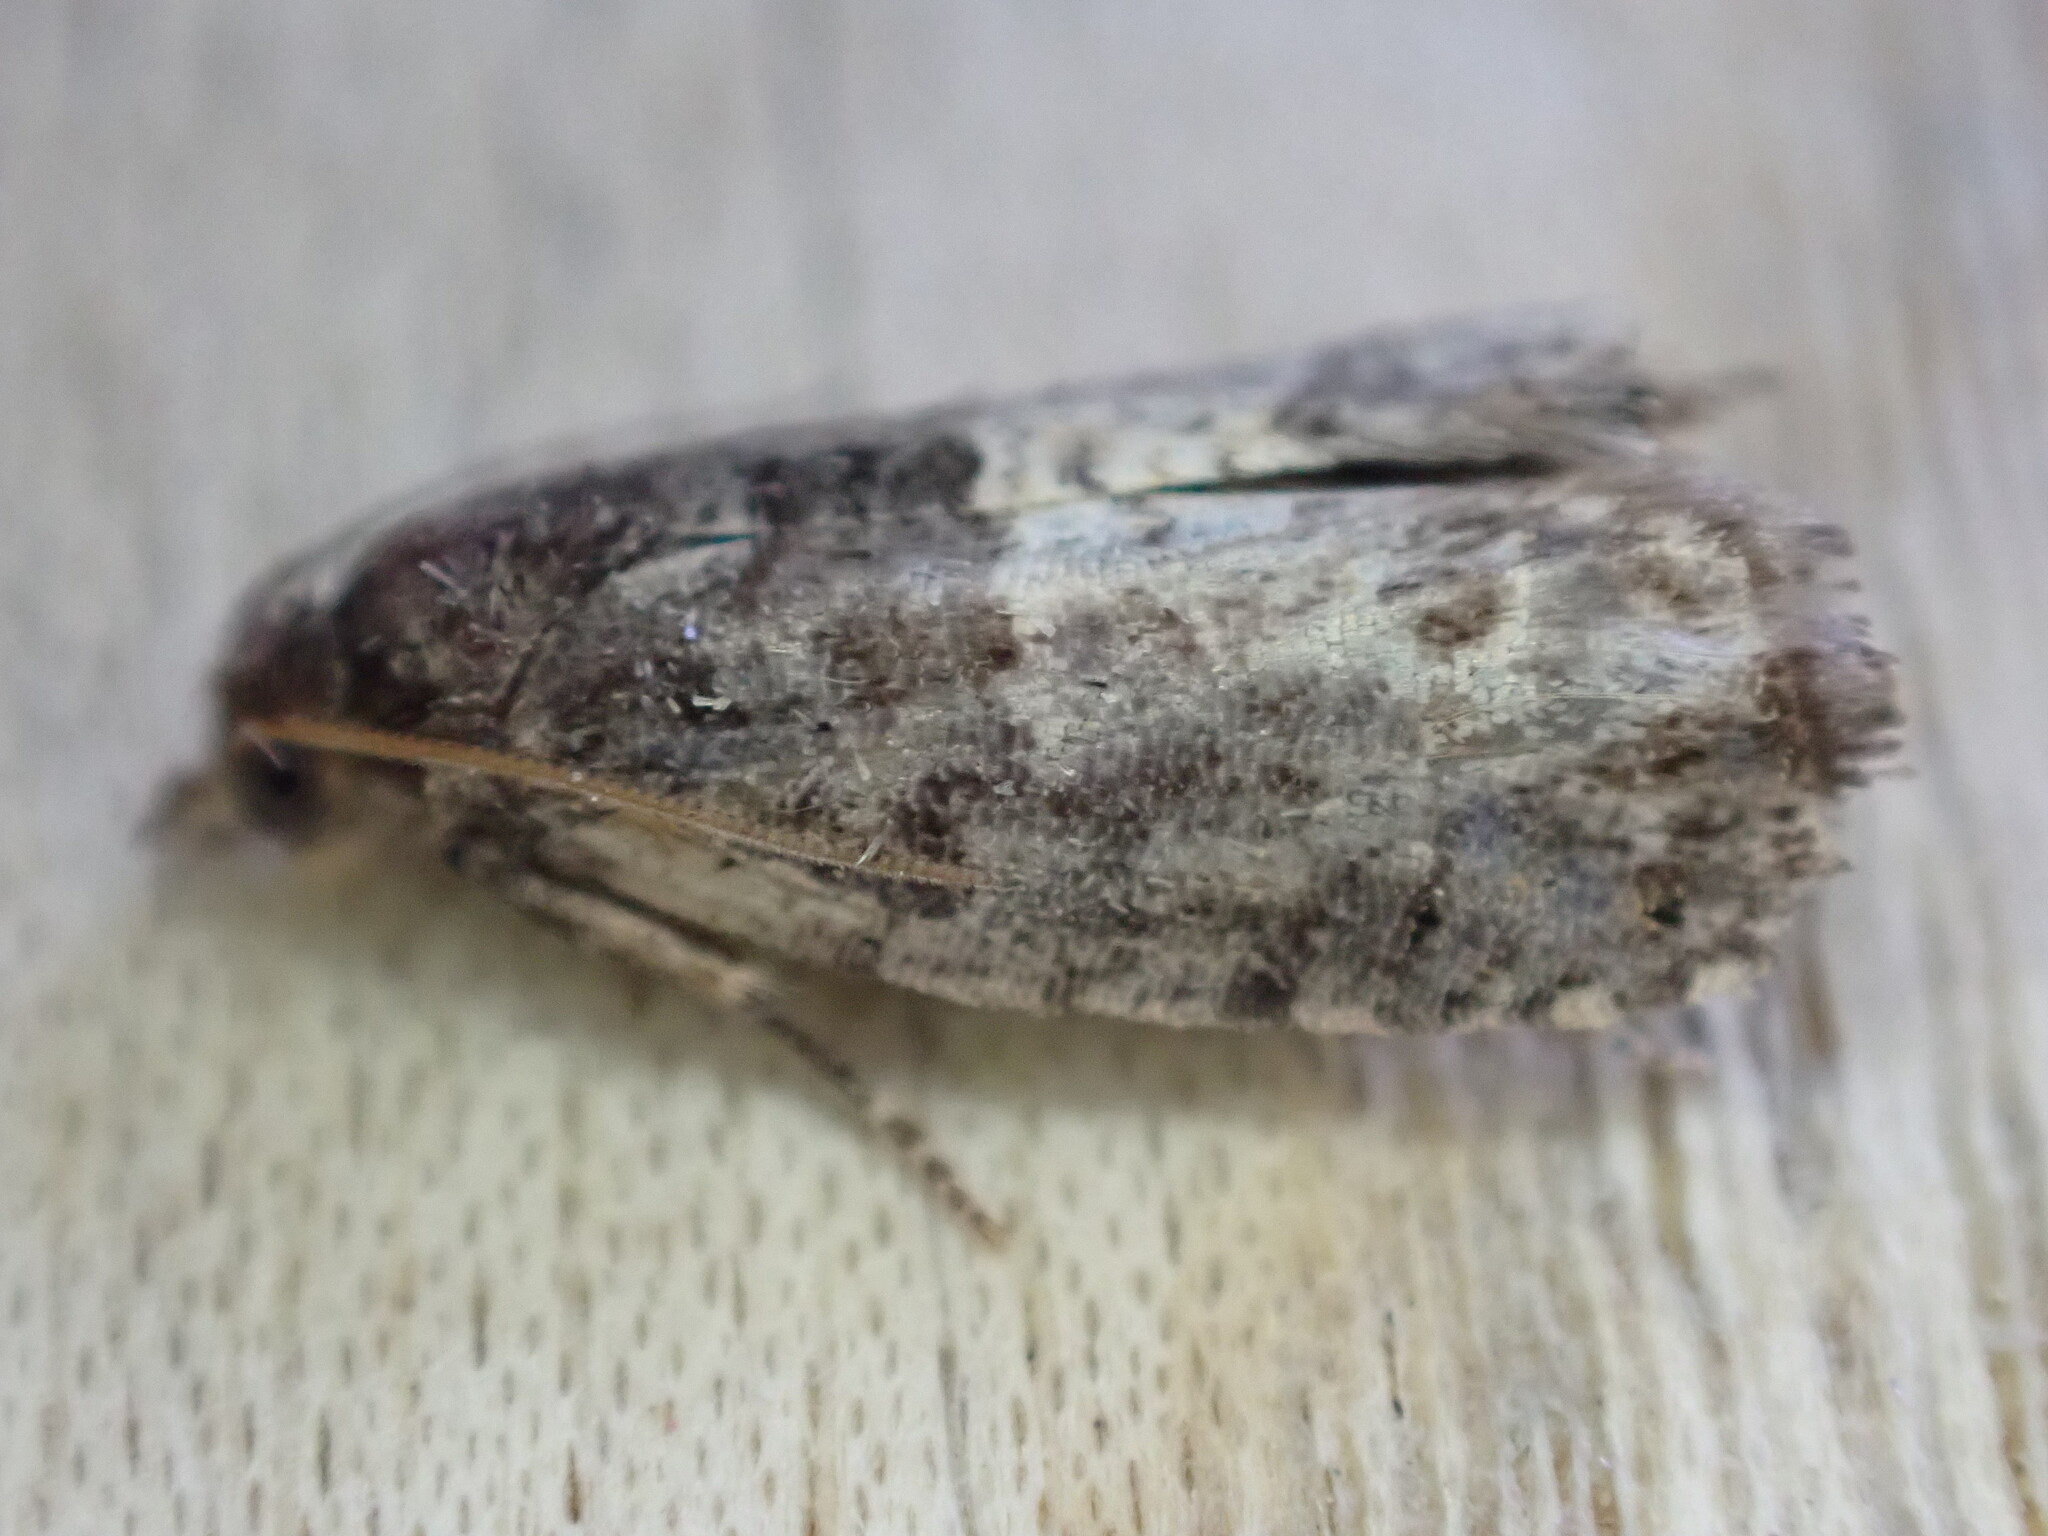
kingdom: Animalia
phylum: Arthropoda
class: Insecta
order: Lepidoptera
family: Tortricidae
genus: Spilonota
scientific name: Spilonota ocellana
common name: Bud moth
